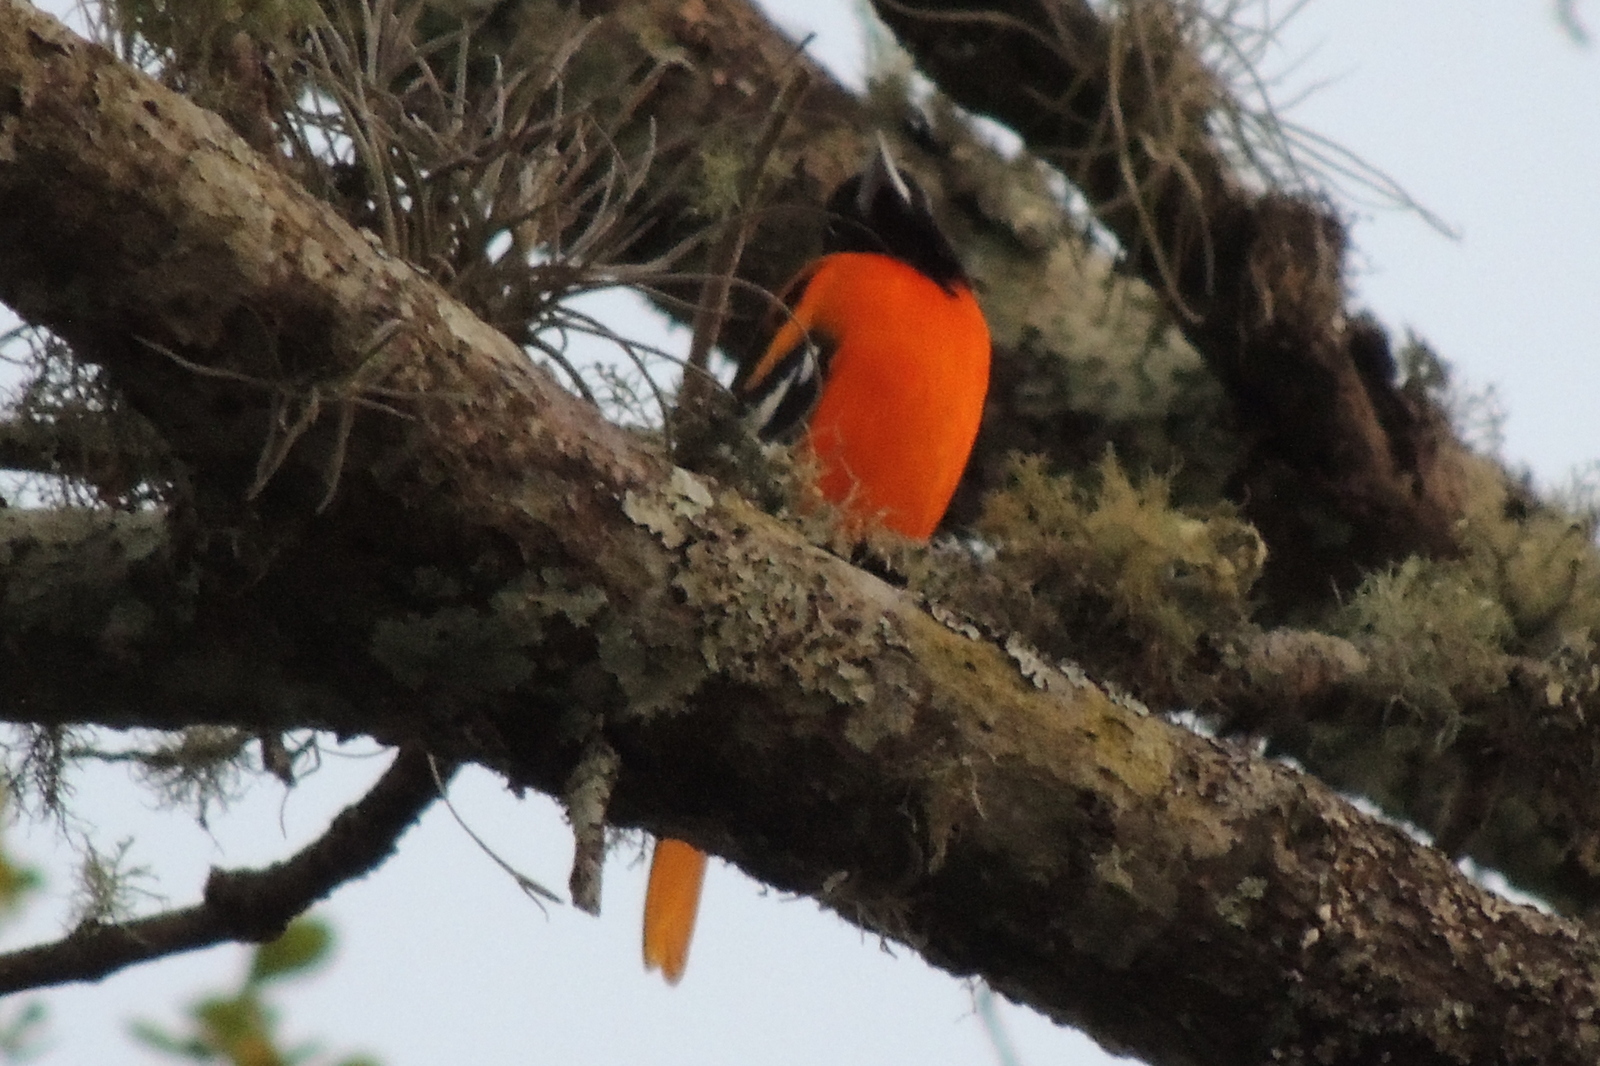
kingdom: Animalia
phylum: Chordata
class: Aves
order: Passeriformes
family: Icteridae
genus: Icterus
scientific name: Icterus galbula
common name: Baltimore oriole
